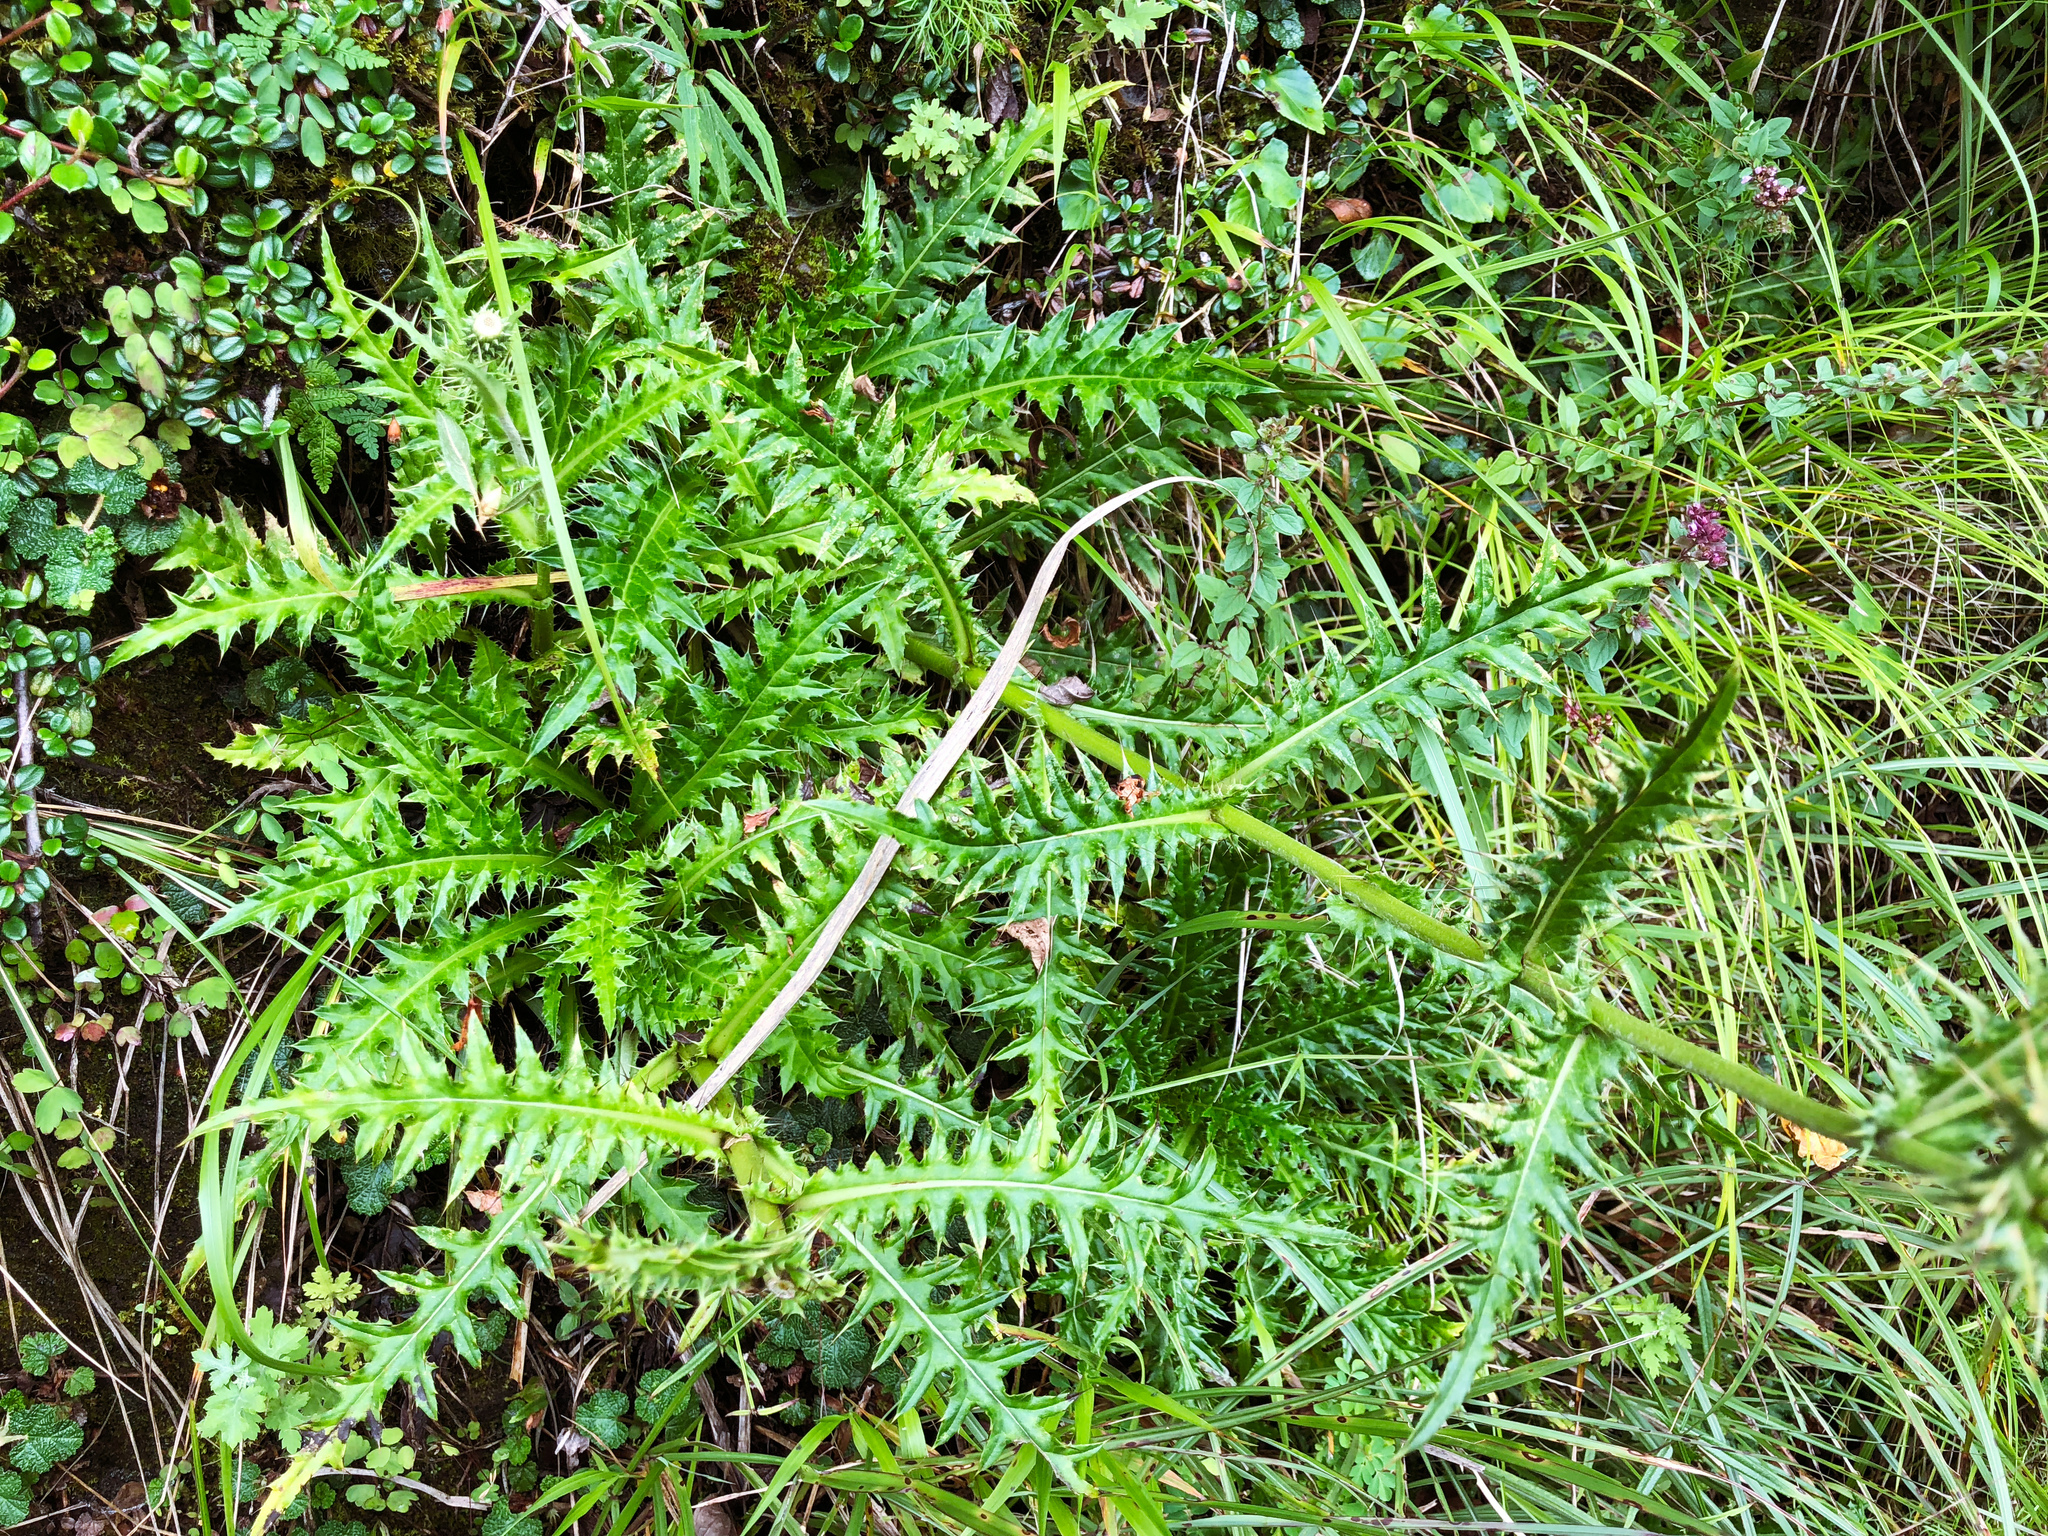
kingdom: Plantae
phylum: Tracheophyta
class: Magnoliopsida
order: Asterales
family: Asteraceae
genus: Cirsium
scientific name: Cirsium arisanense
